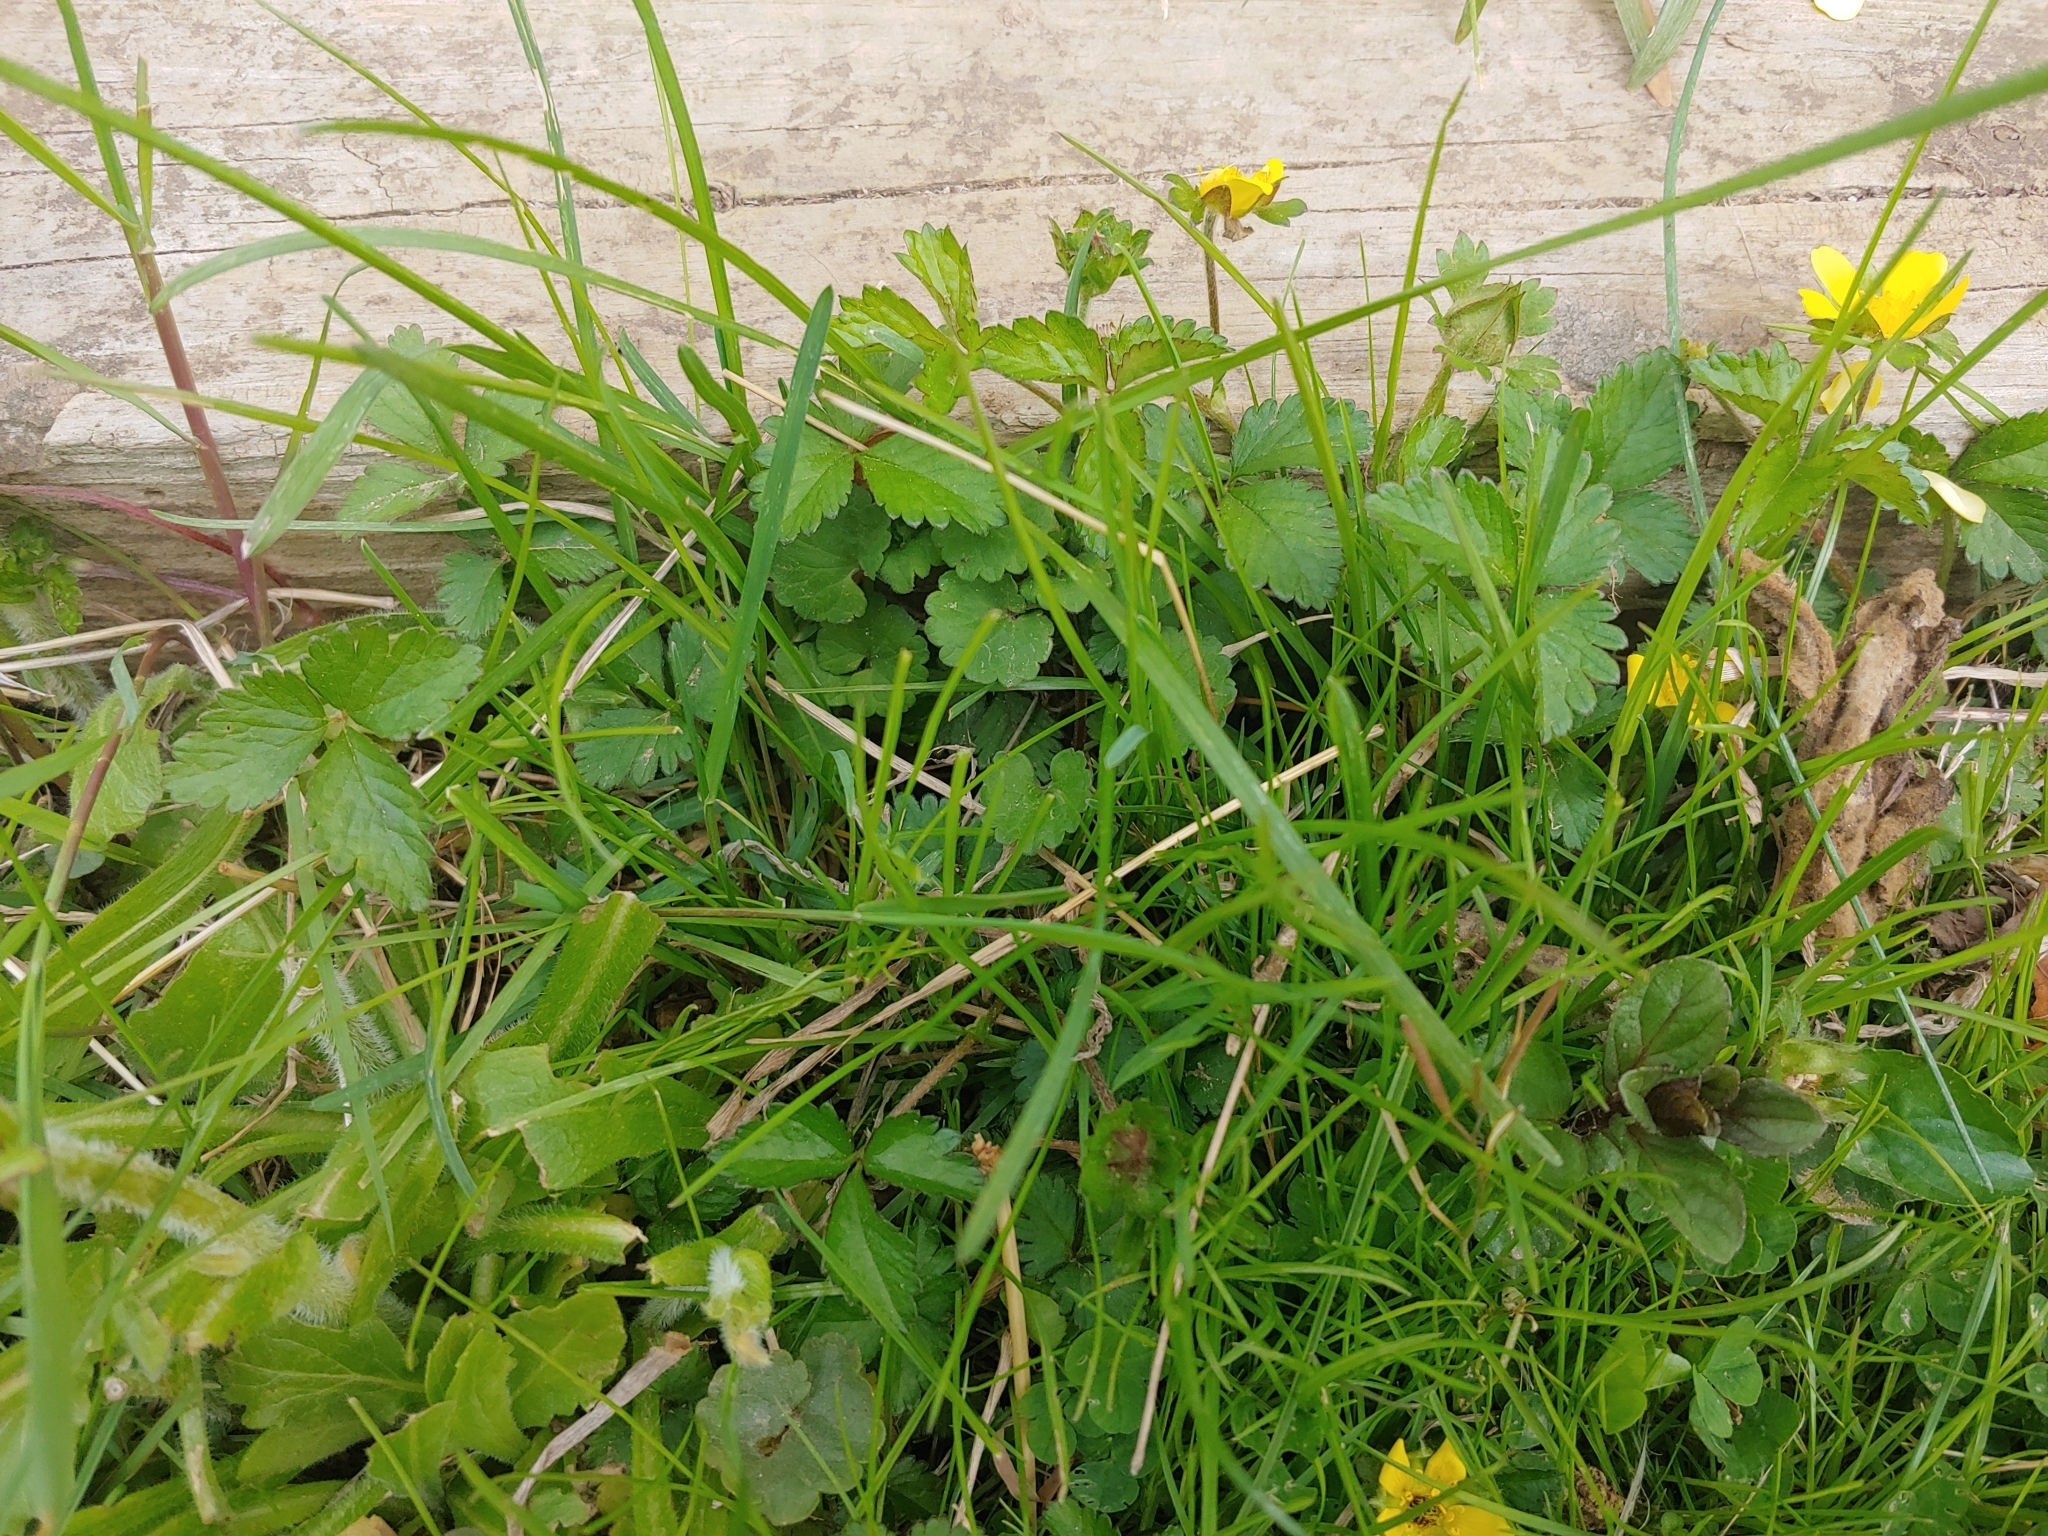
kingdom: Plantae
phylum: Tracheophyta
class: Magnoliopsida
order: Rosales
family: Rosaceae
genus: Potentilla
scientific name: Potentilla indica
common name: Yellow-flowered strawberry
